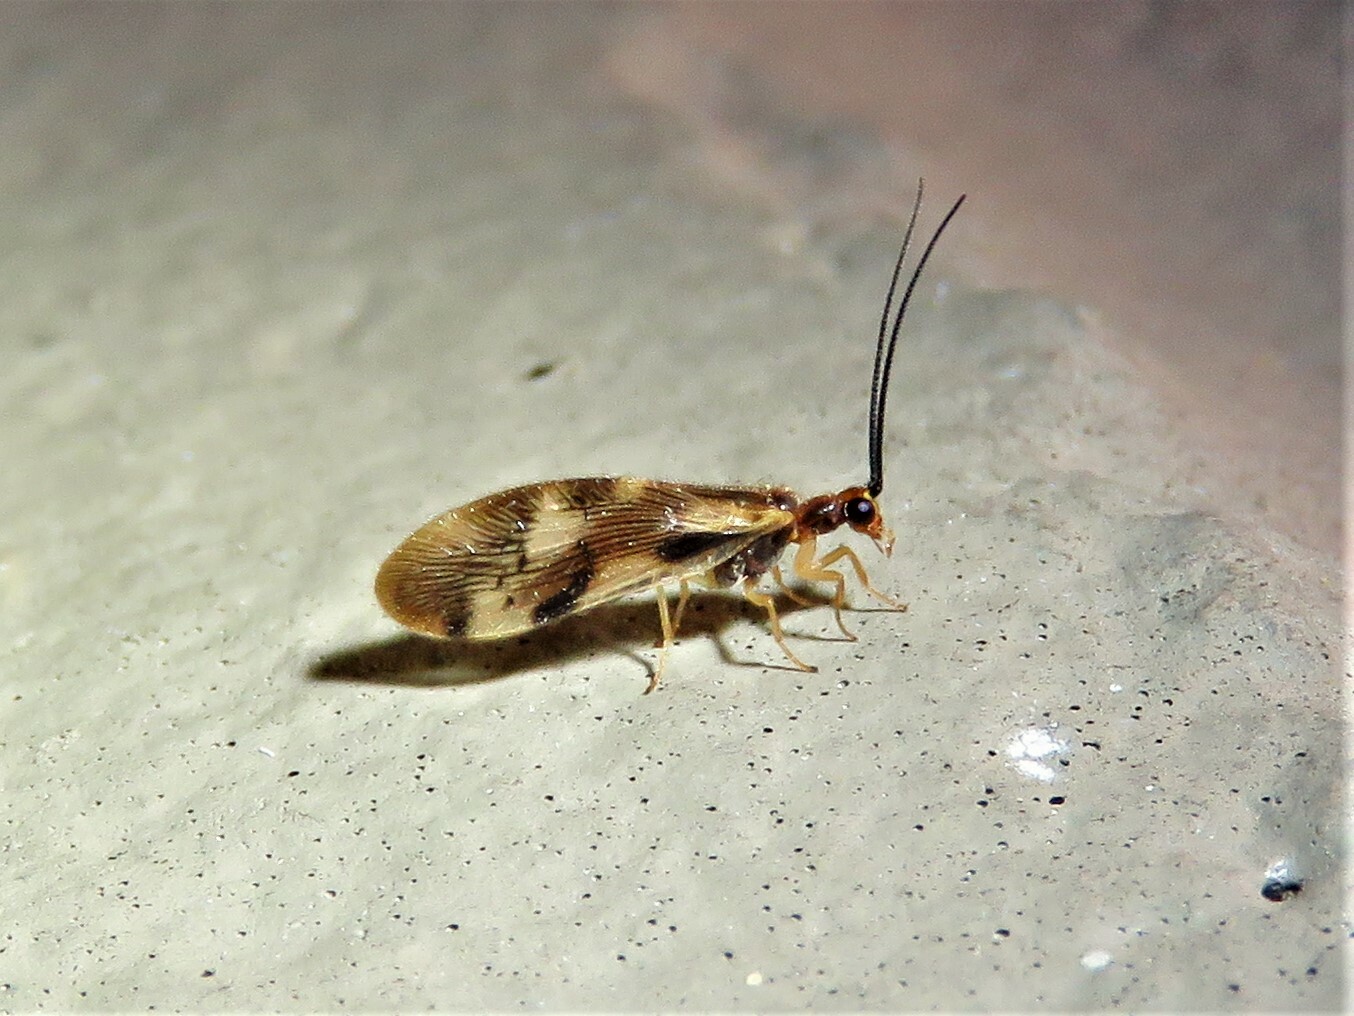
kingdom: Animalia
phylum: Arthropoda
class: Insecta
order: Neuroptera
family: Sisyridae
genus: Climacia
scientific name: Climacia areolaris
